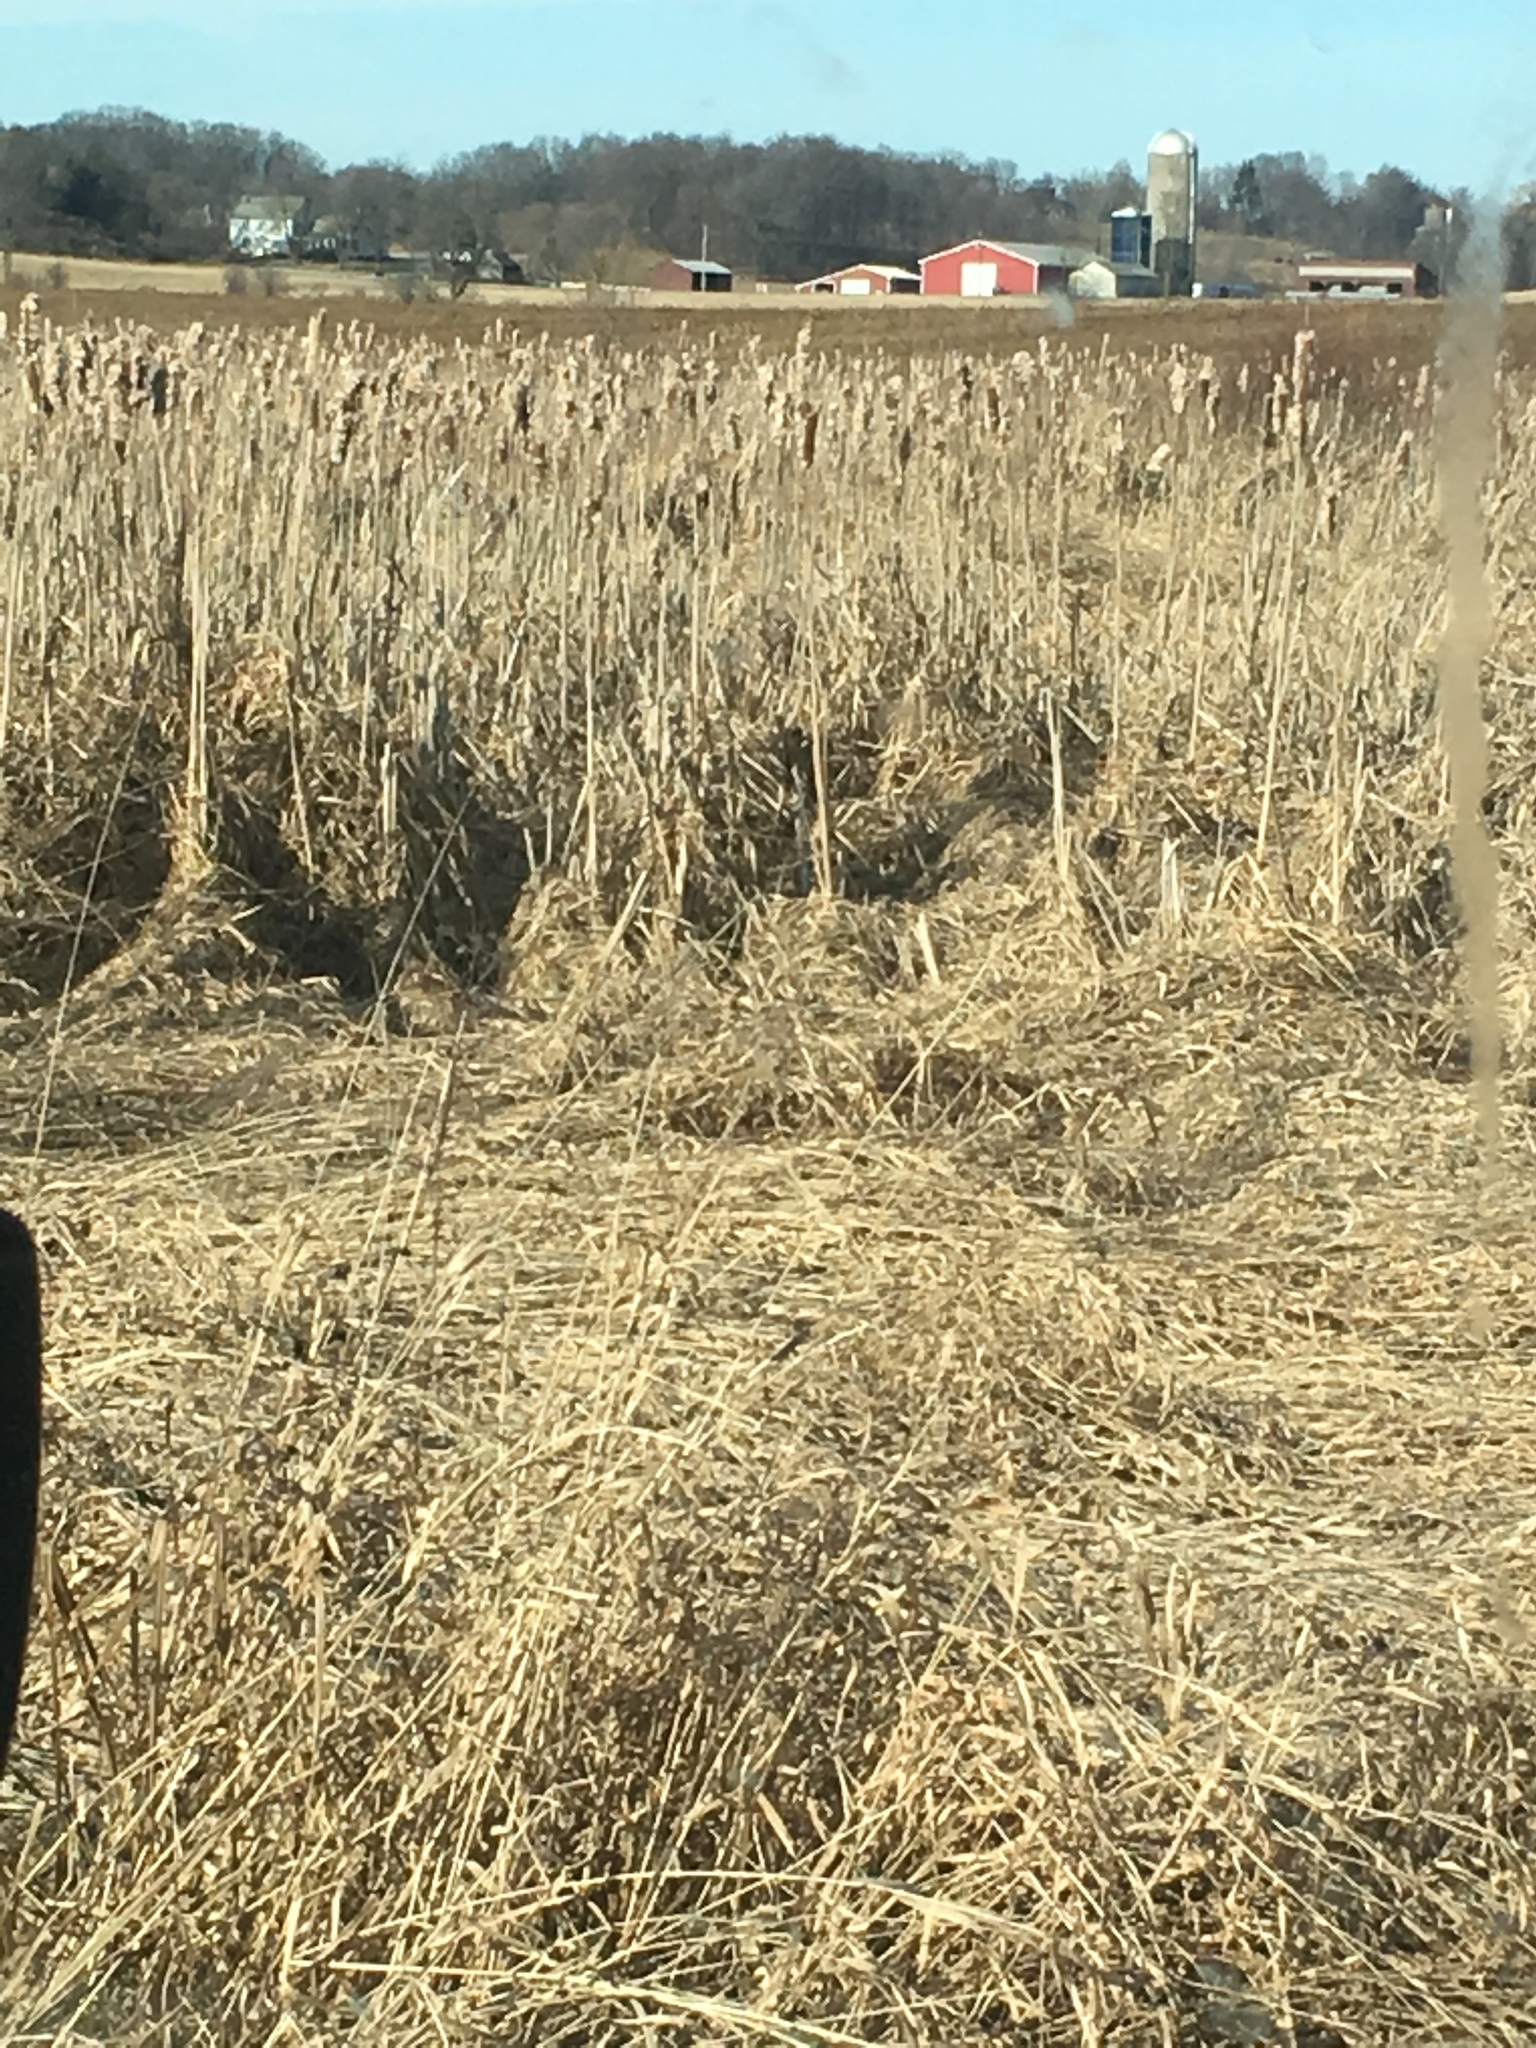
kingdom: Plantae
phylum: Tracheophyta
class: Liliopsida
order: Poales
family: Typhaceae
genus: Typha
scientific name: Typha
